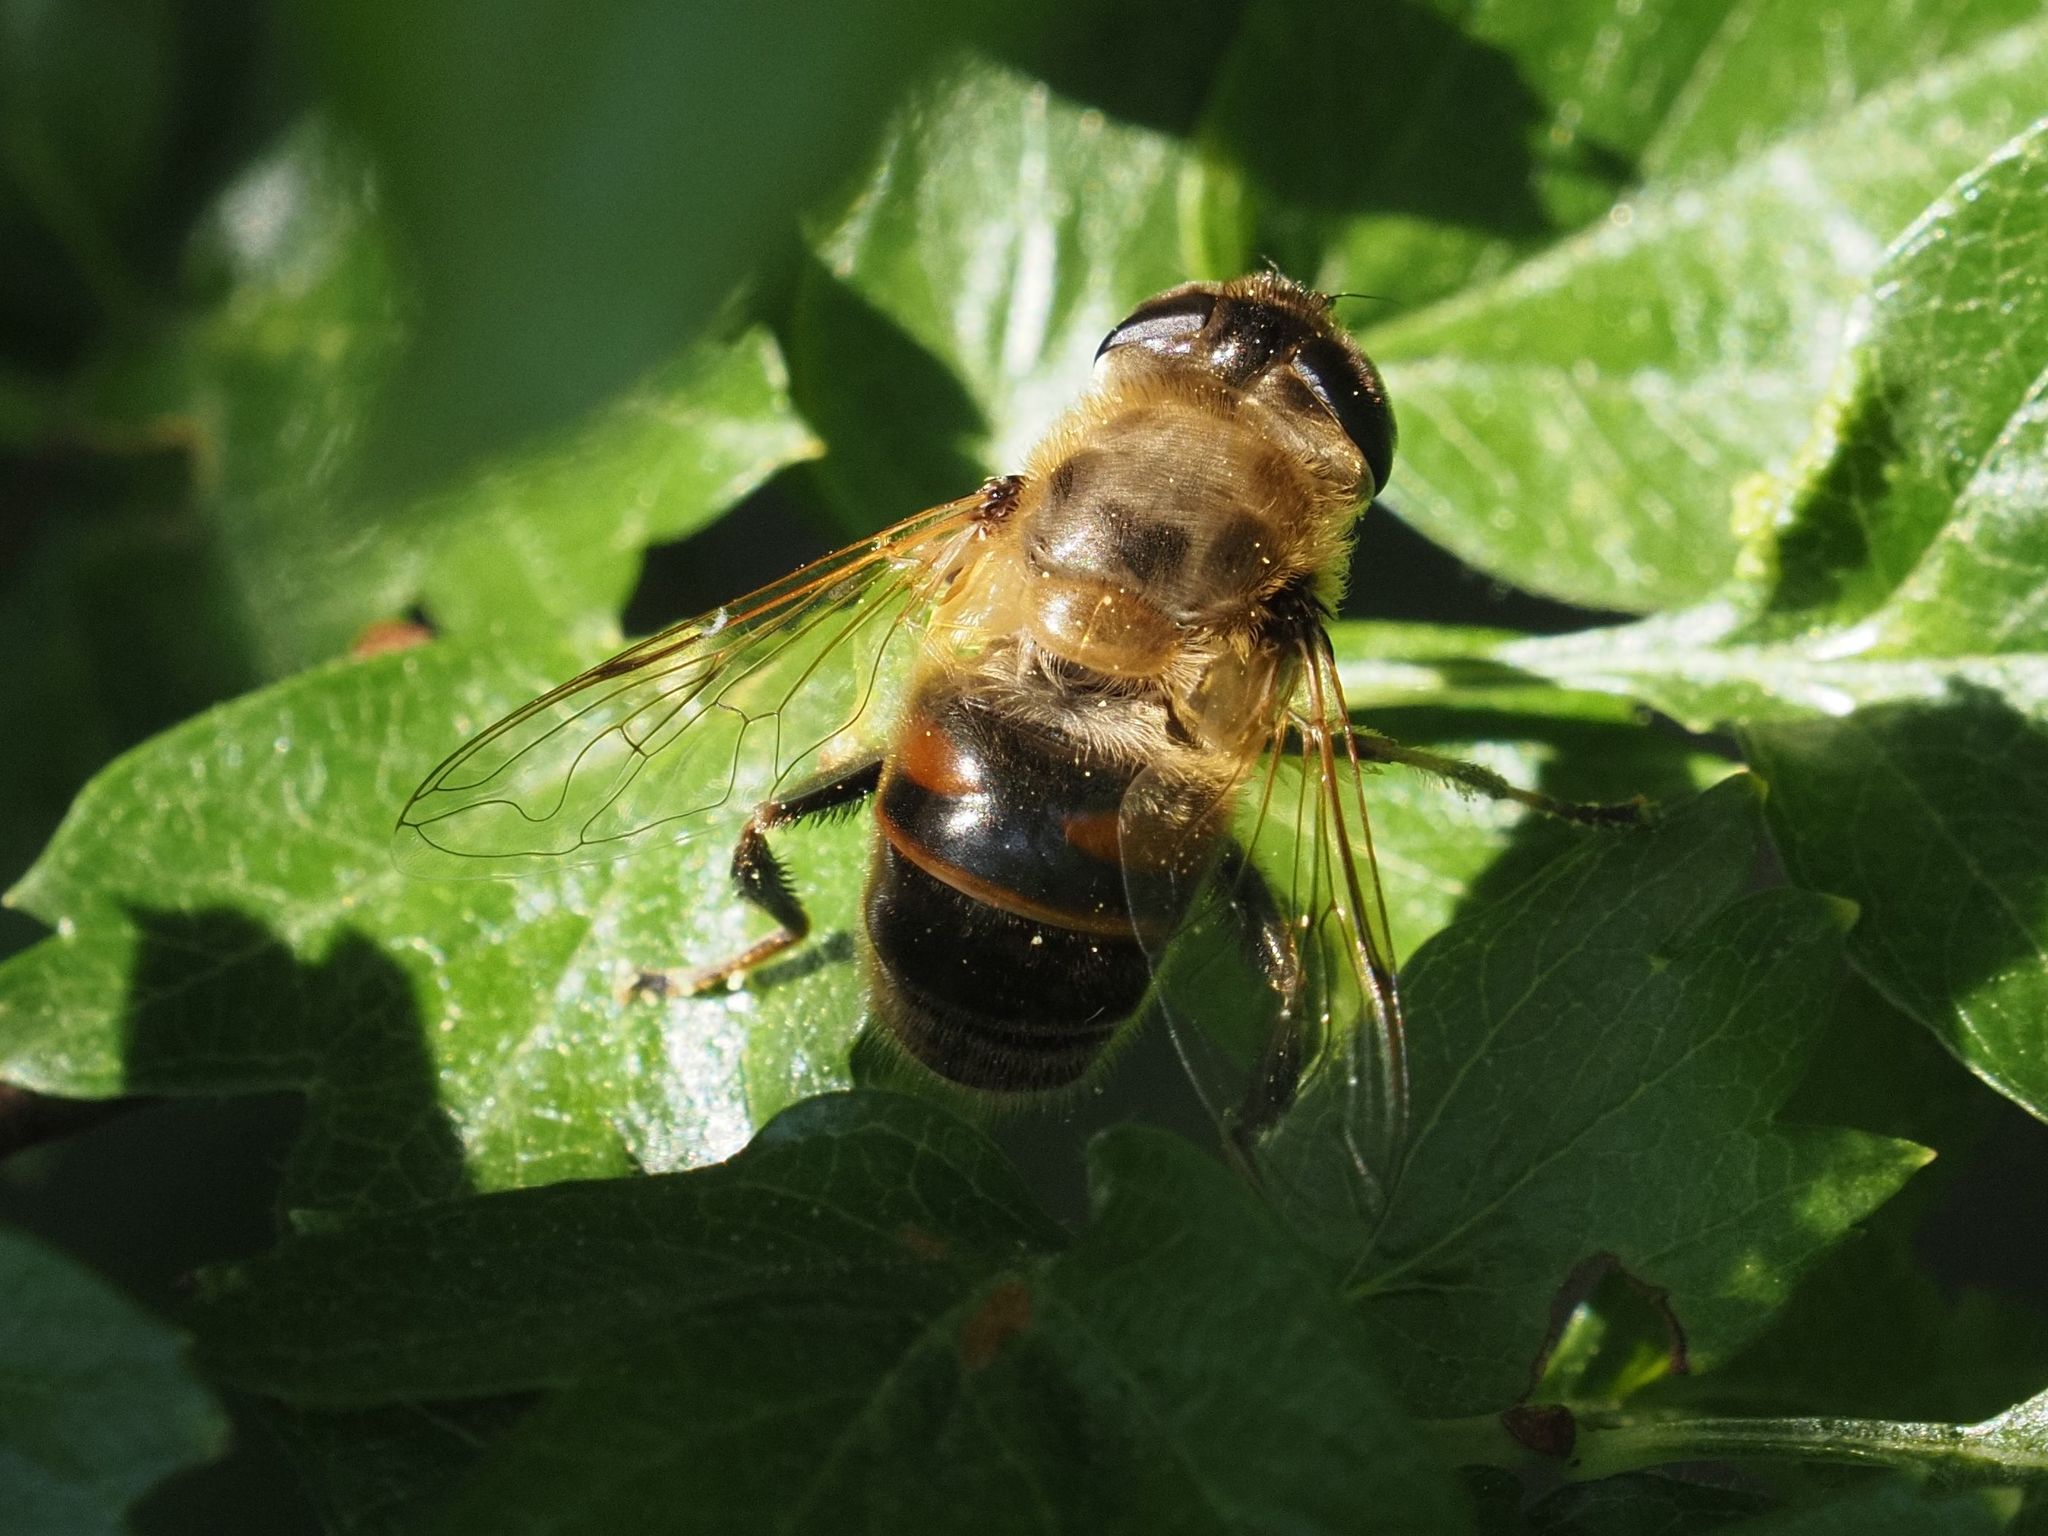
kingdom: Animalia
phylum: Arthropoda
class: Insecta
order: Diptera
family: Syrphidae
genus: Eristalis
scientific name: Eristalis tenax
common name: Drone fly
